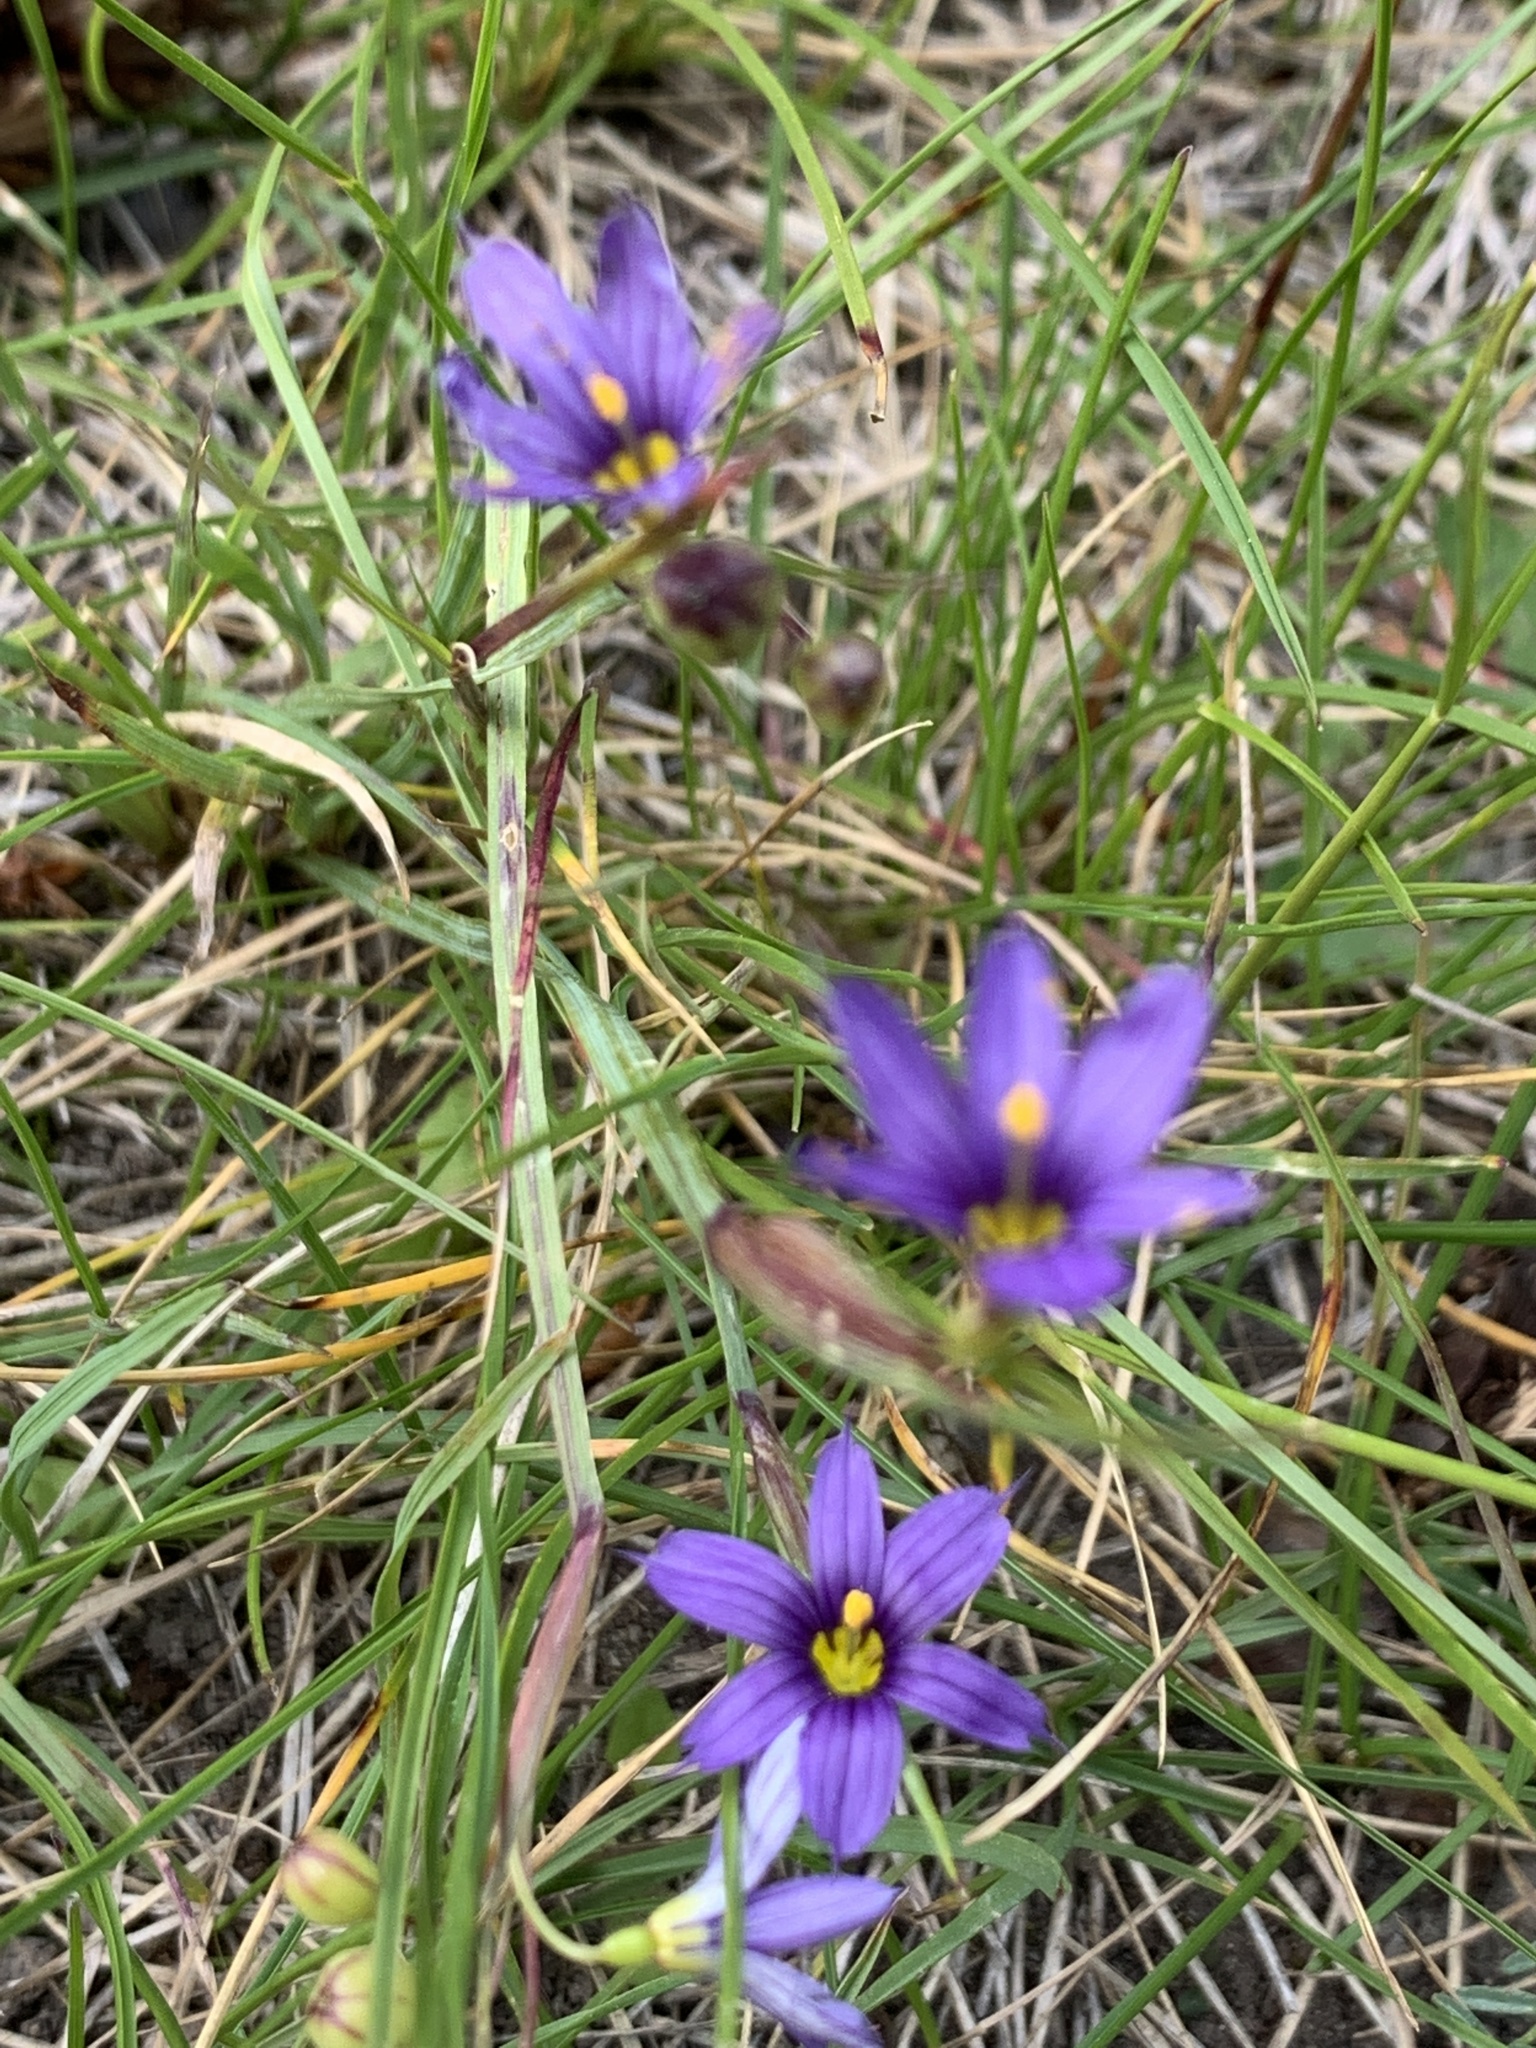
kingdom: Plantae
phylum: Tracheophyta
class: Liliopsida
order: Asparagales
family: Iridaceae
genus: Sisyrinchium
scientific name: Sisyrinchium montanum
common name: American blue-eyed-grass
